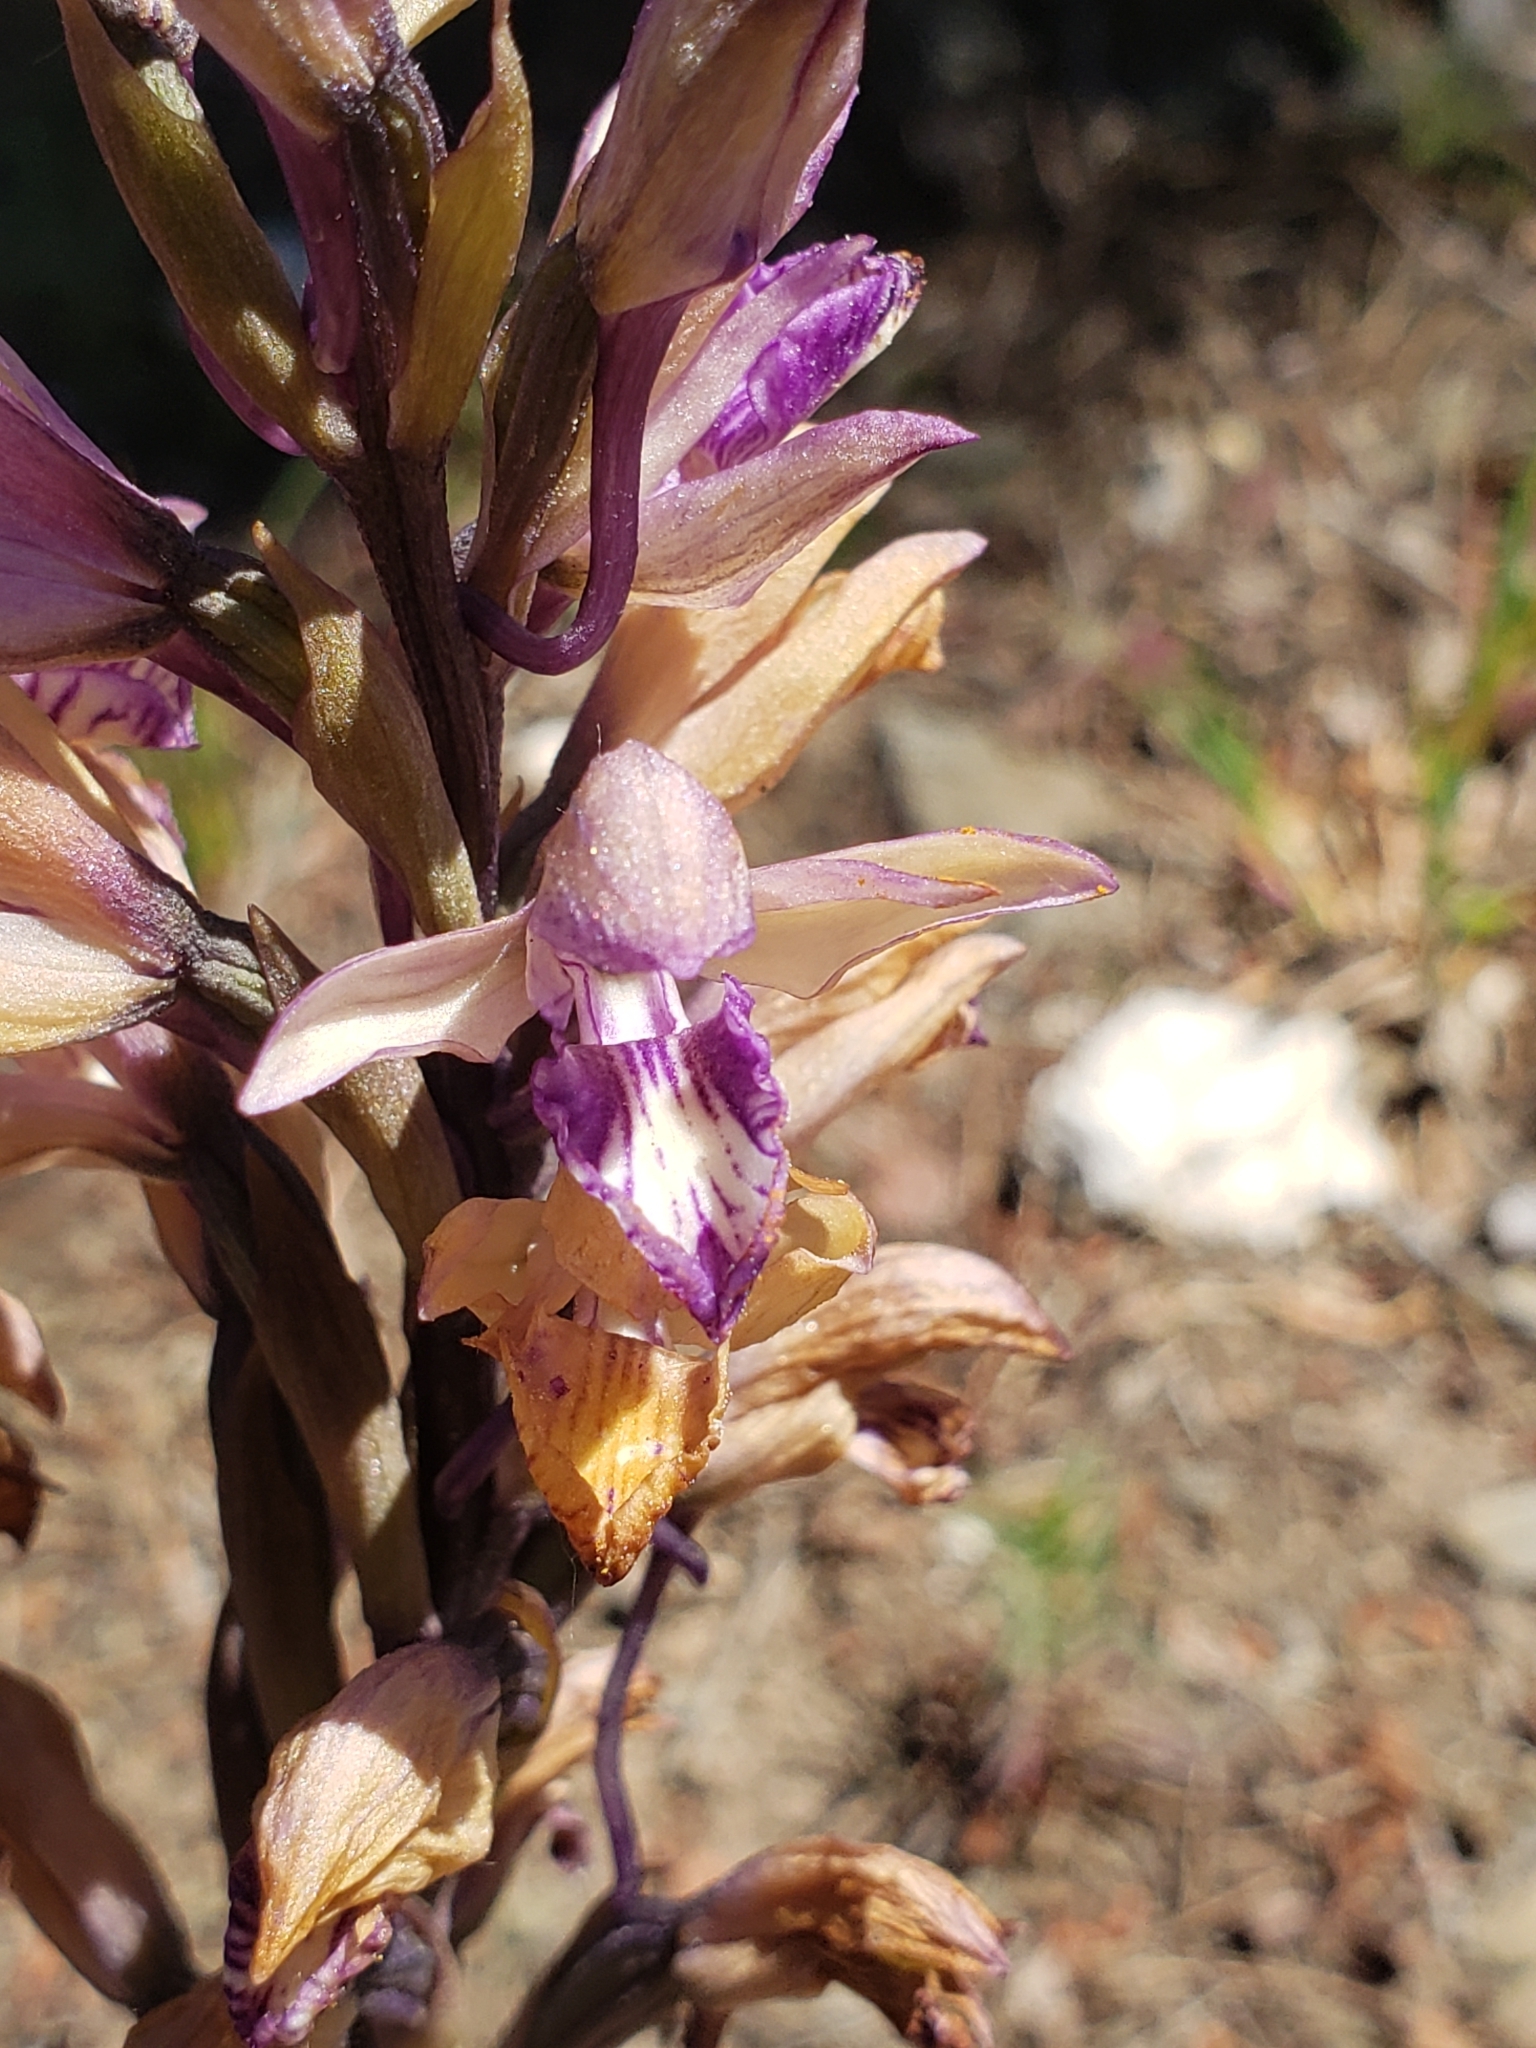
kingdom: Plantae
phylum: Tracheophyta
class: Liliopsida
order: Asparagales
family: Orchidaceae
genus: Limodorum
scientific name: Limodorum abortivum
